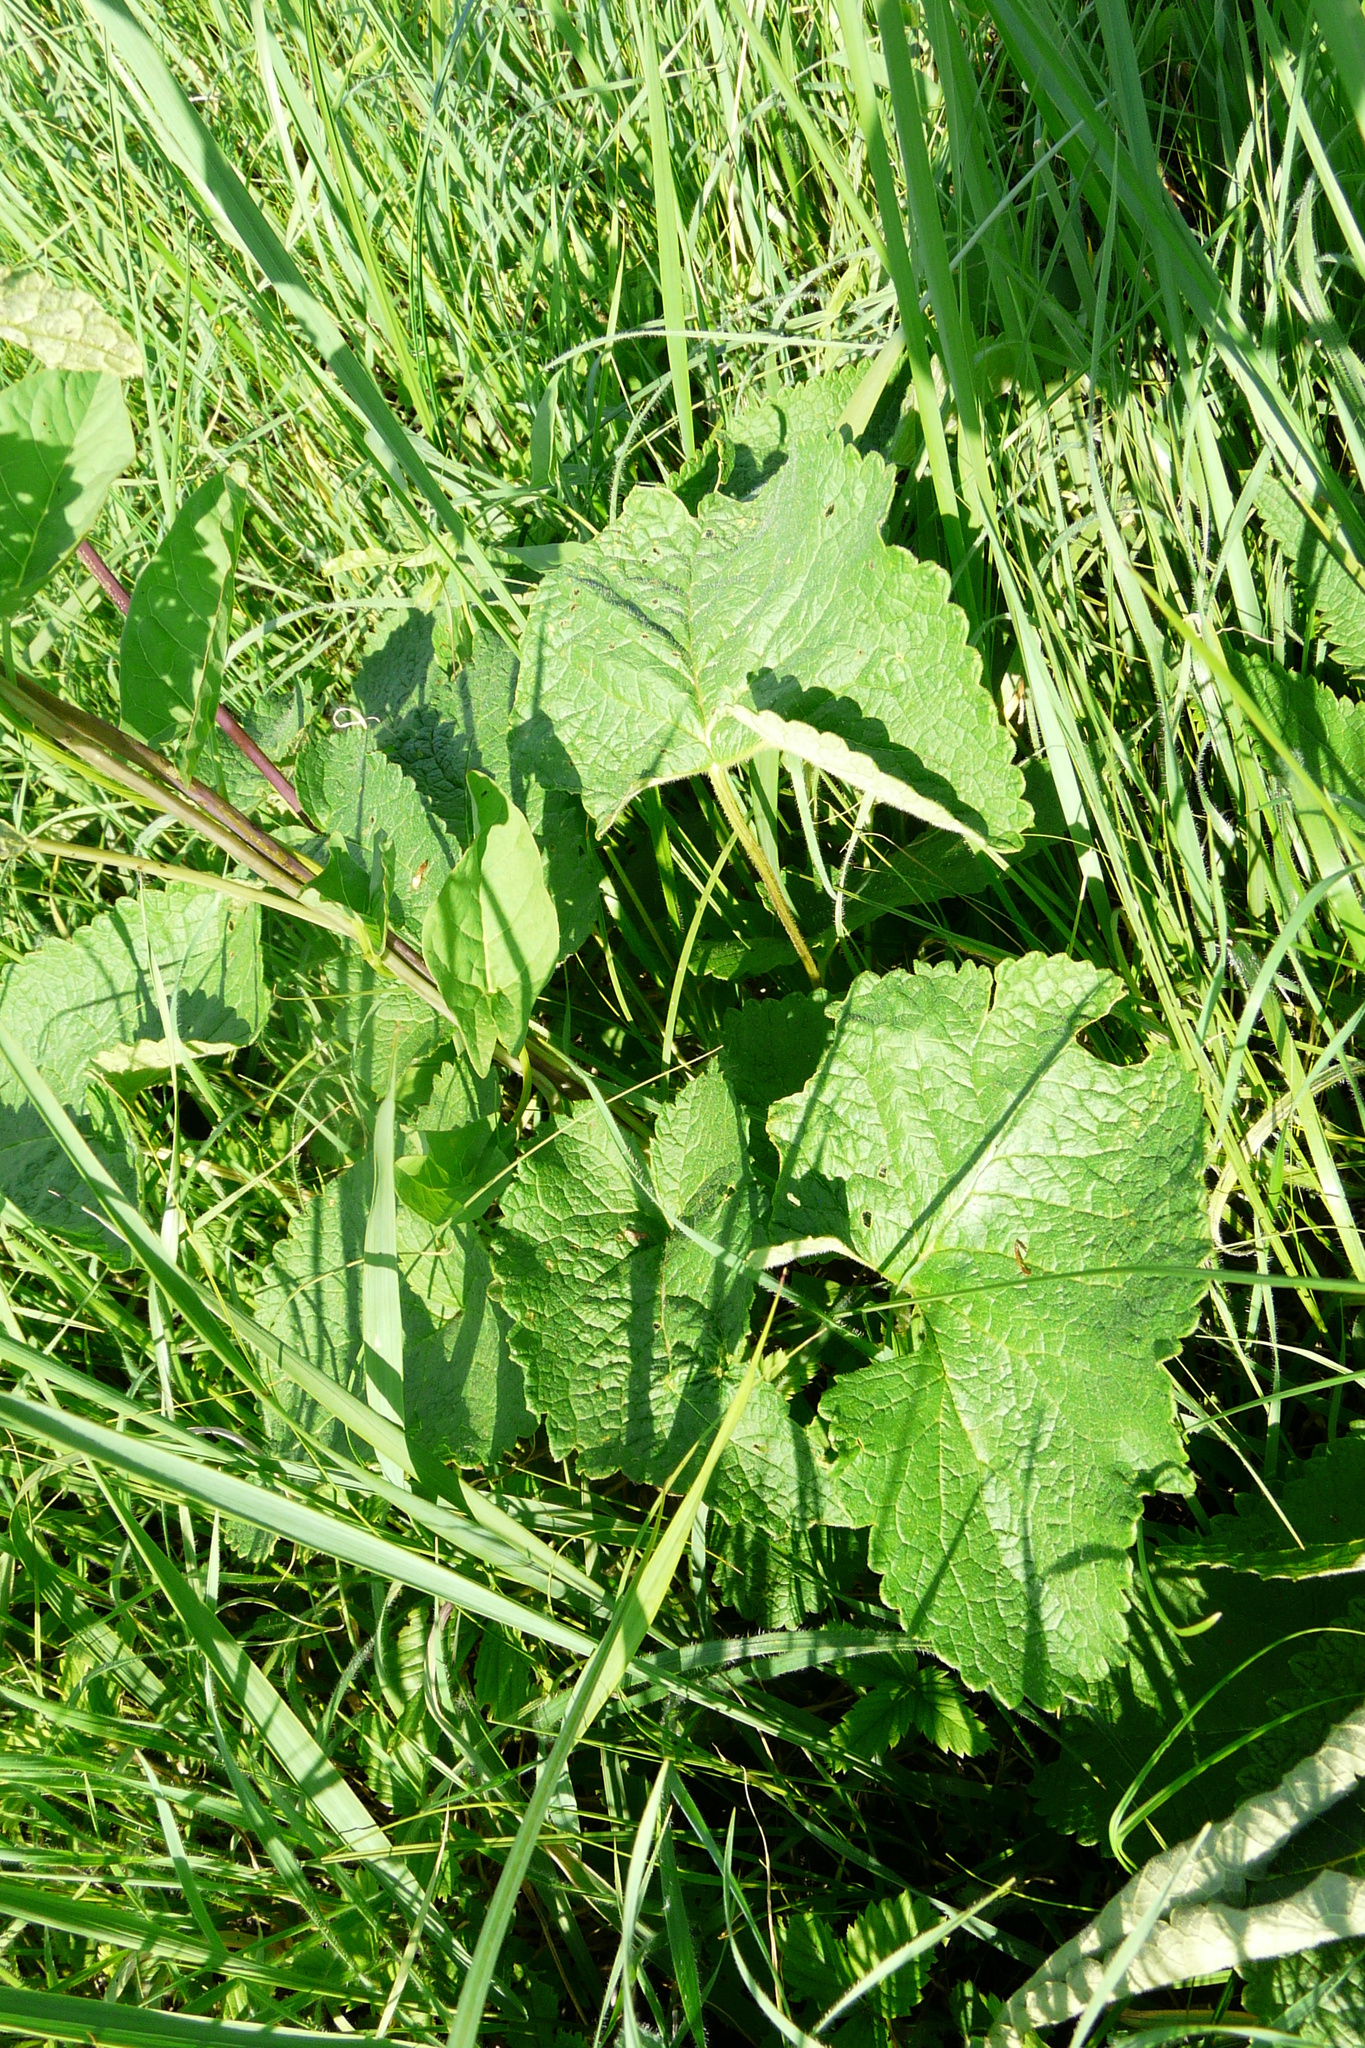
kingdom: Plantae
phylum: Tracheophyta
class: Magnoliopsida
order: Lamiales
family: Lamiaceae
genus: Phlomoides
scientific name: Phlomoides tuberosa
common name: Tuberous jerusalem sage
